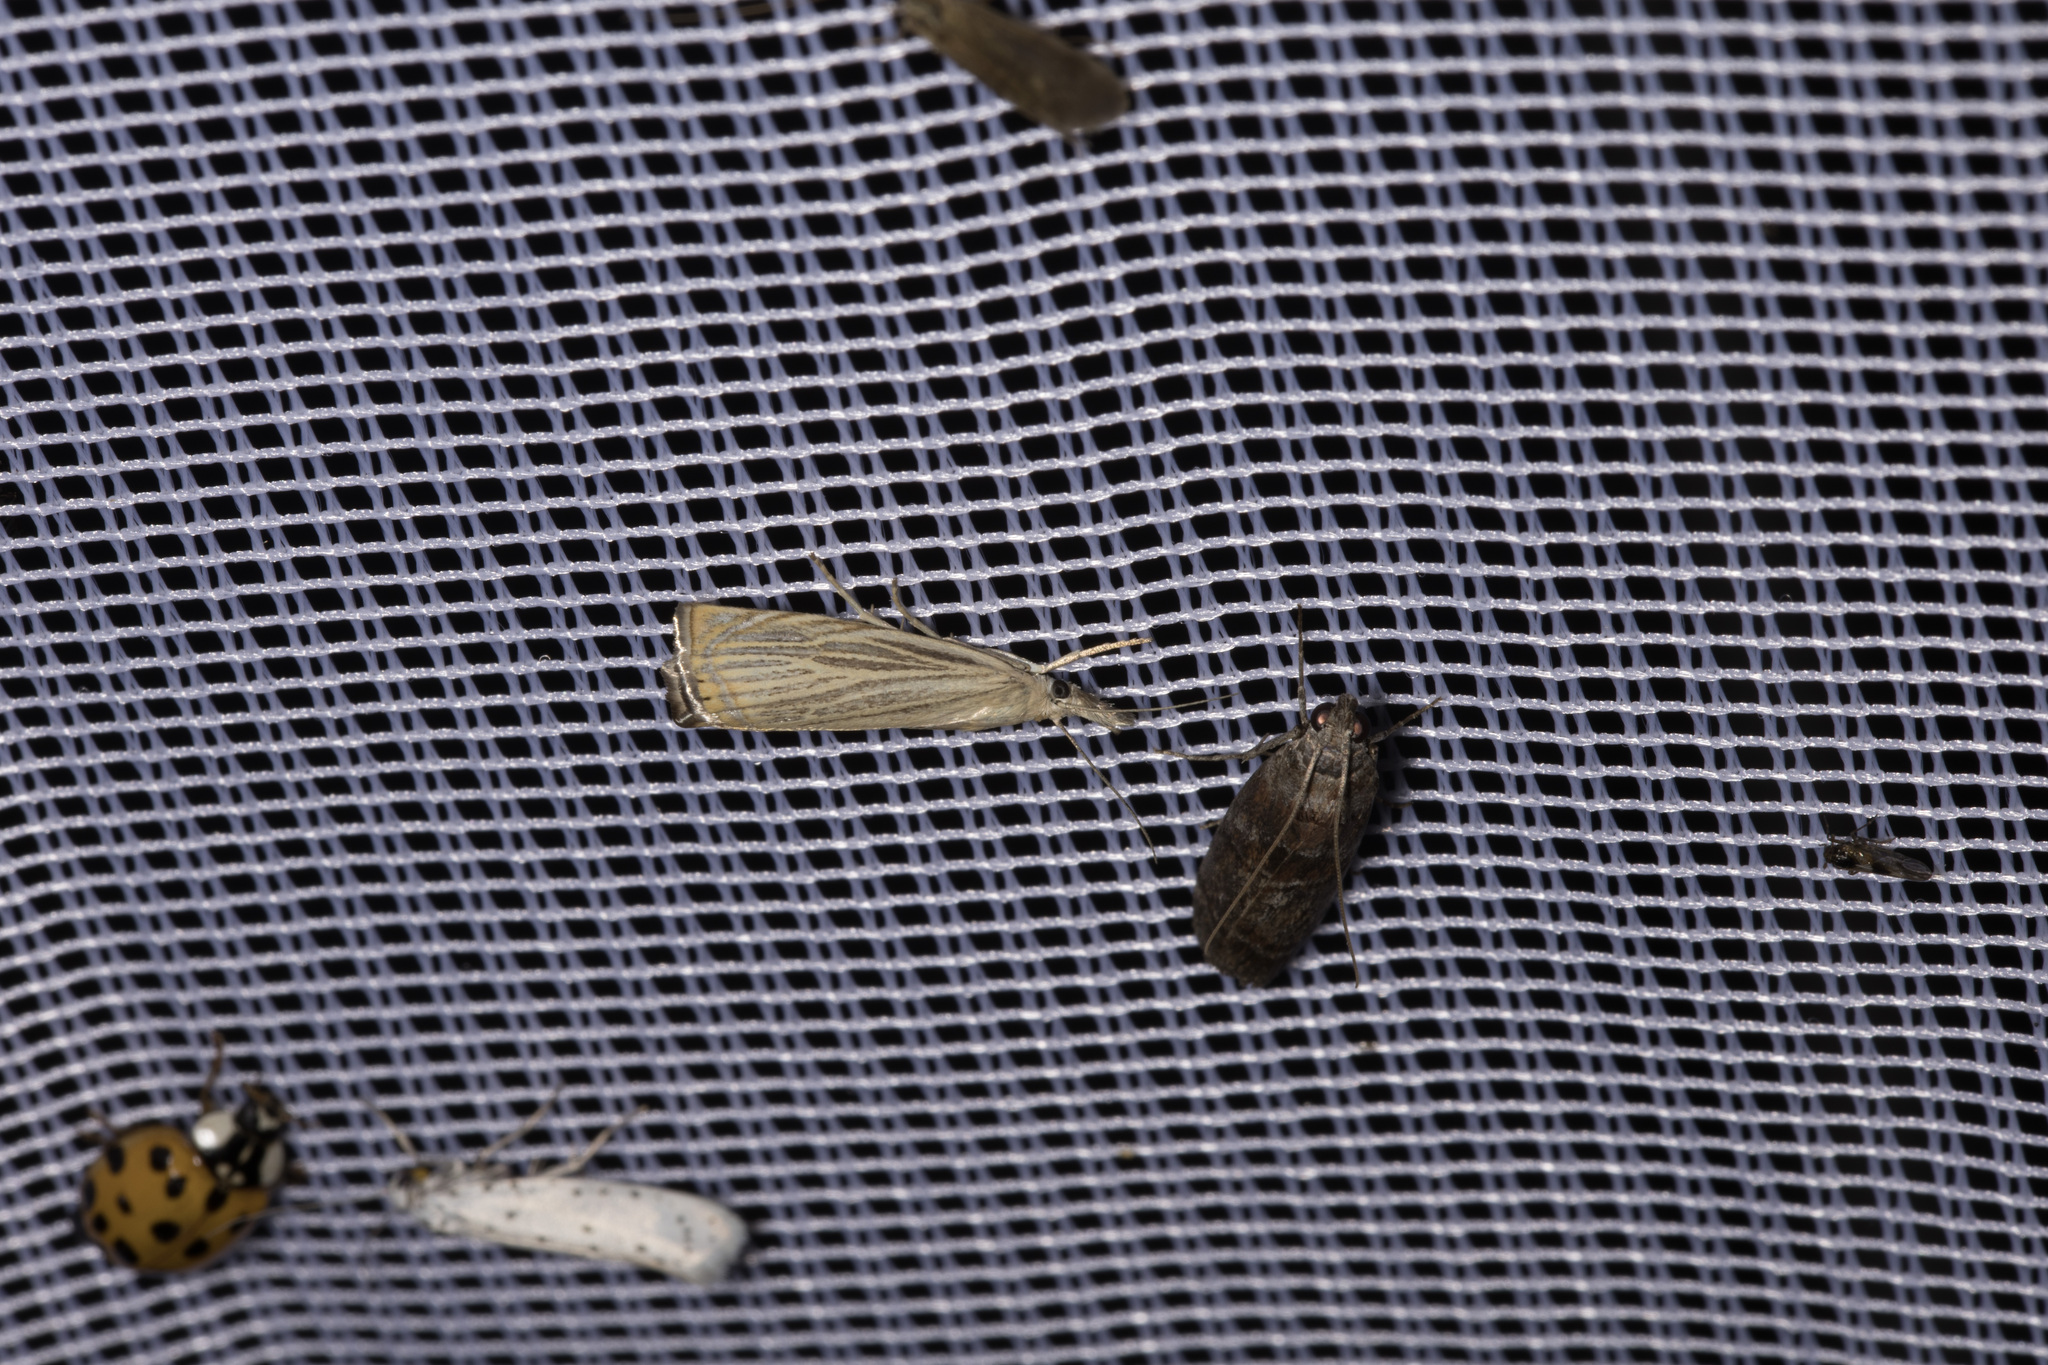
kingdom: Animalia
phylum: Arthropoda
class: Insecta
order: Lepidoptera
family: Crambidae
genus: Chrysoteuchia
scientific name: Chrysoteuchia culmella
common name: Garden grass-veneer
